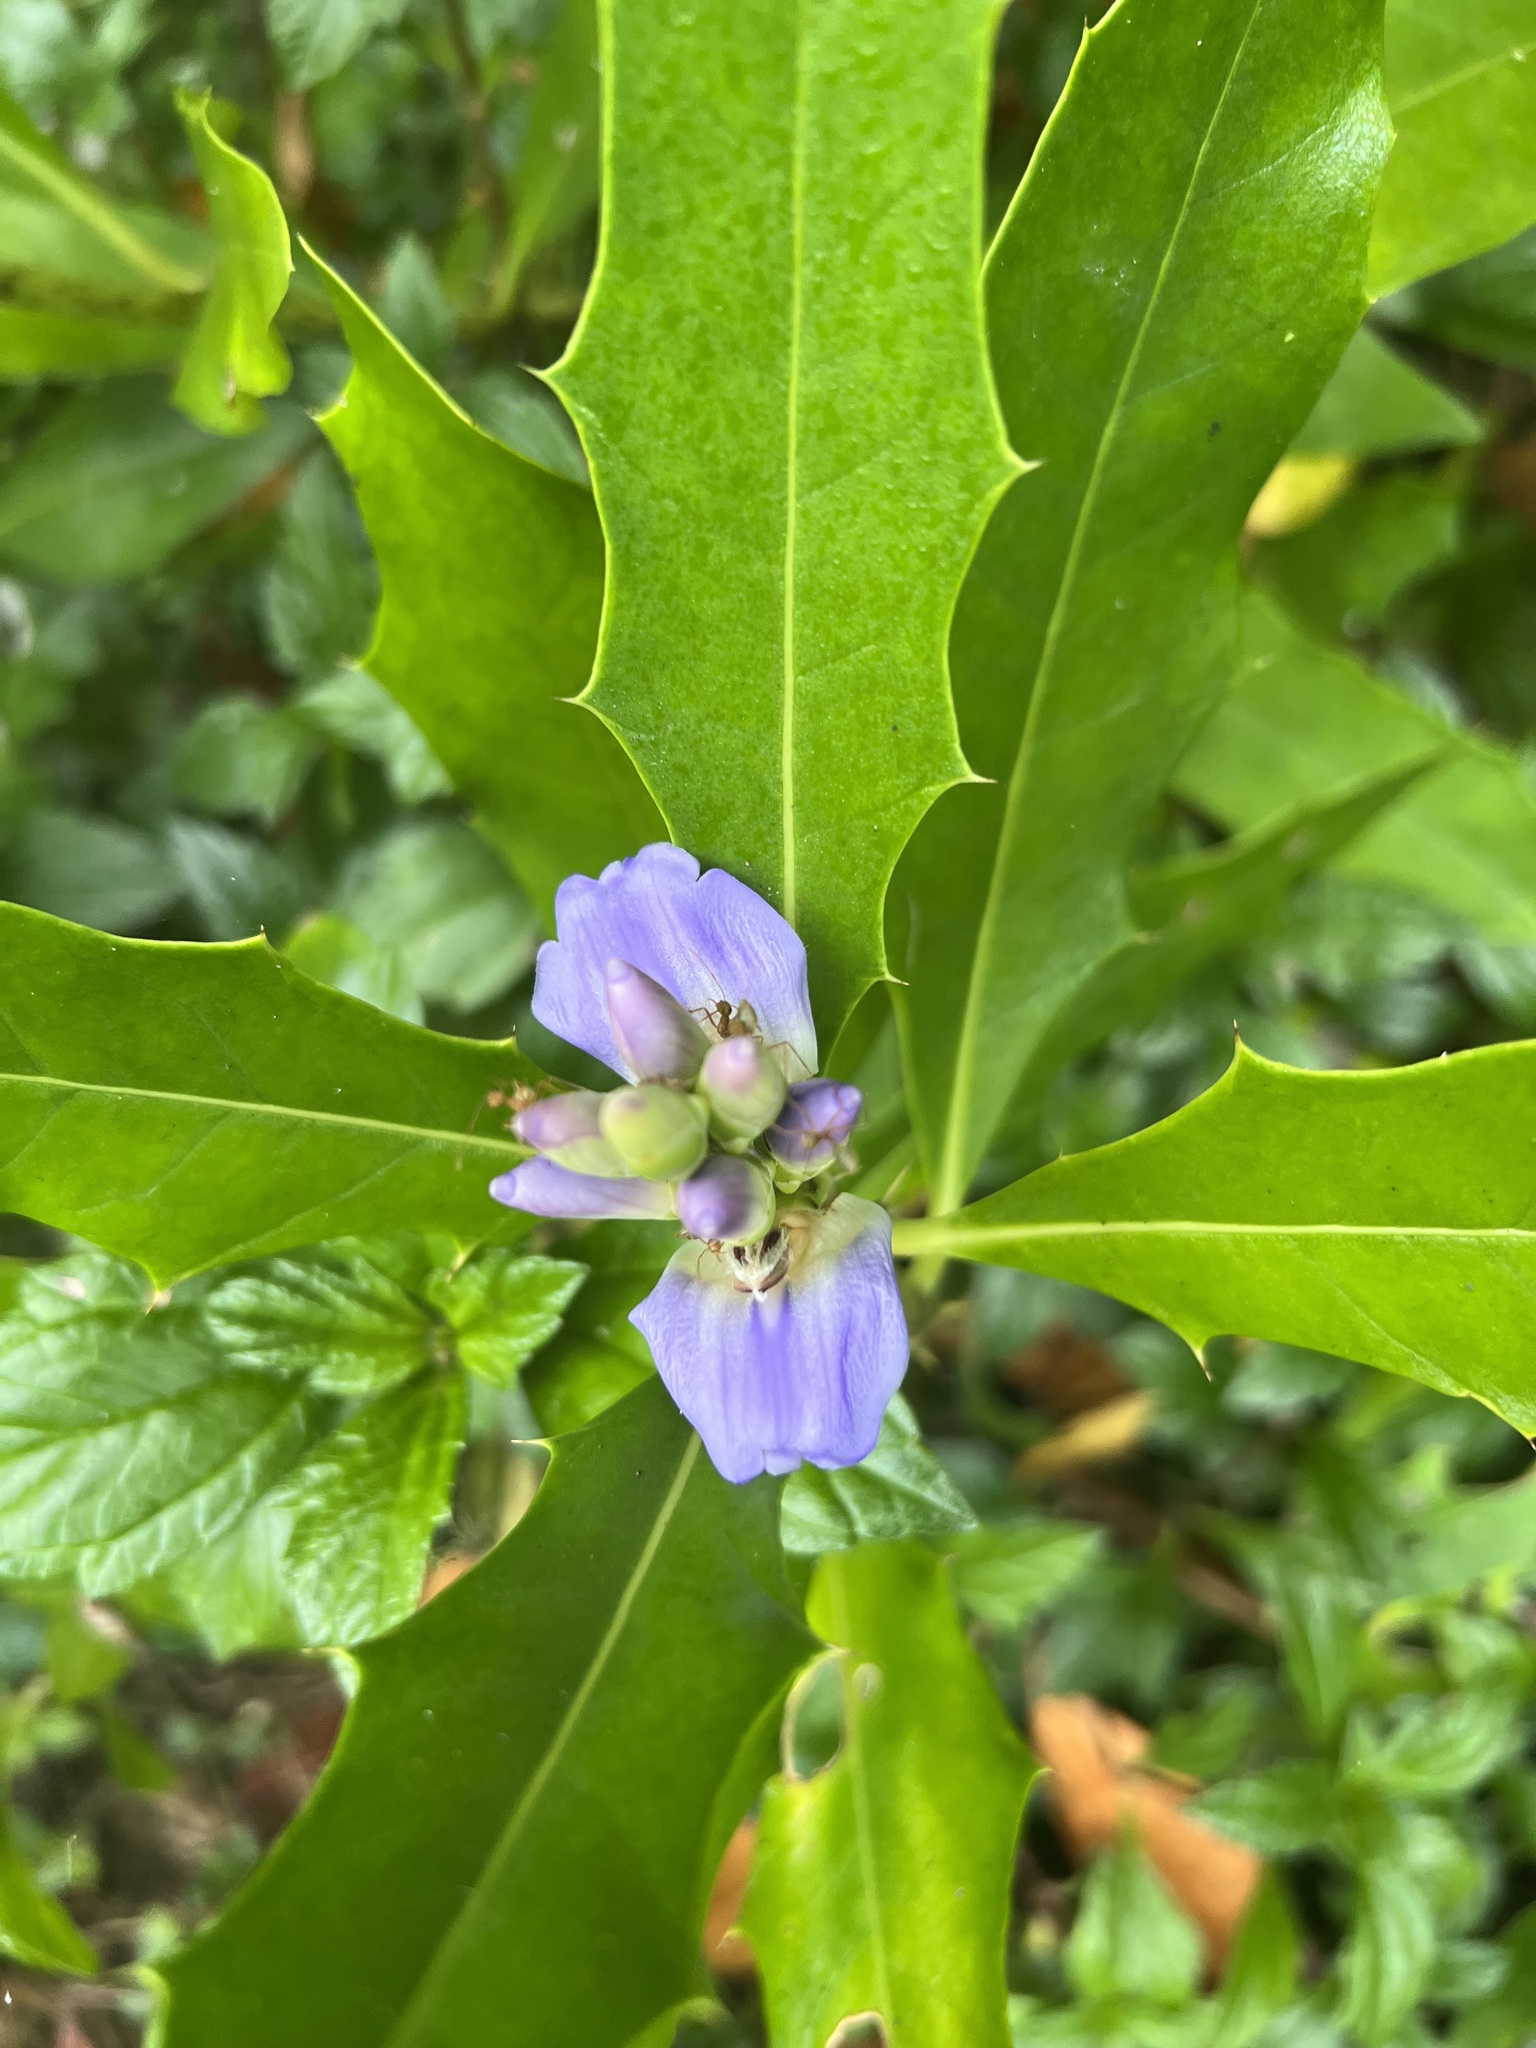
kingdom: Plantae
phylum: Tracheophyta
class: Magnoliopsida
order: Lamiales
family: Acanthaceae
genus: Acanthus
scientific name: Acanthus ilicifolius
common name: Holy mangrove
